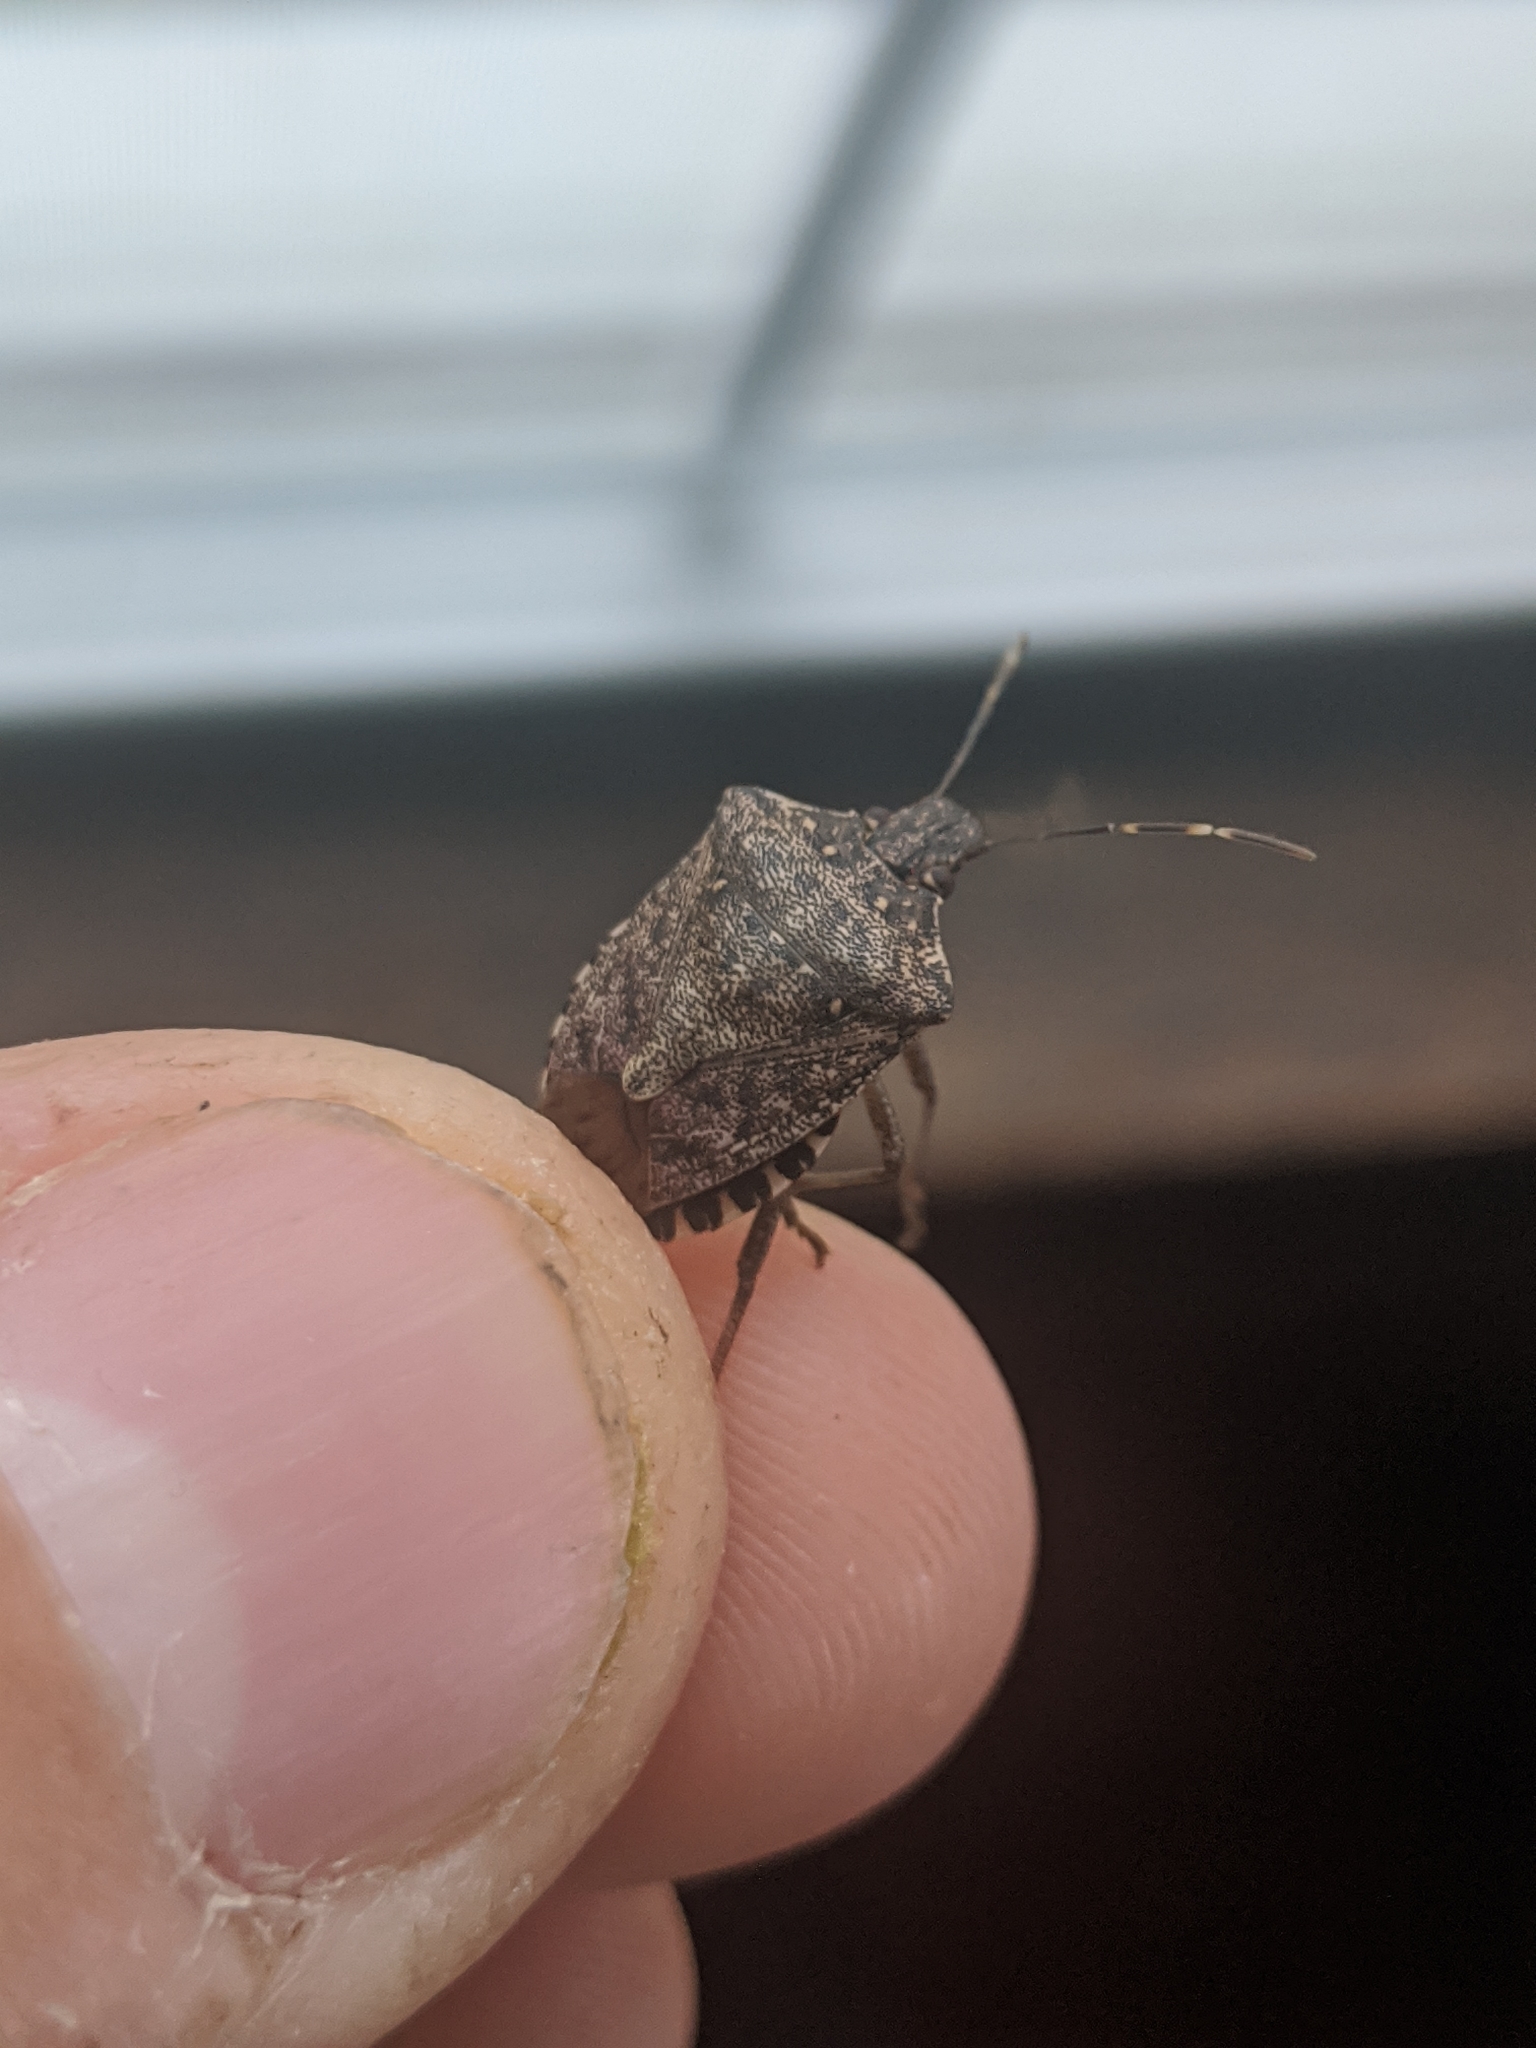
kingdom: Animalia
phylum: Arthropoda
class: Insecta
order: Hemiptera
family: Pentatomidae
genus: Halyomorpha
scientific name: Halyomorpha halys
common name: Brown marmorated stink bug
